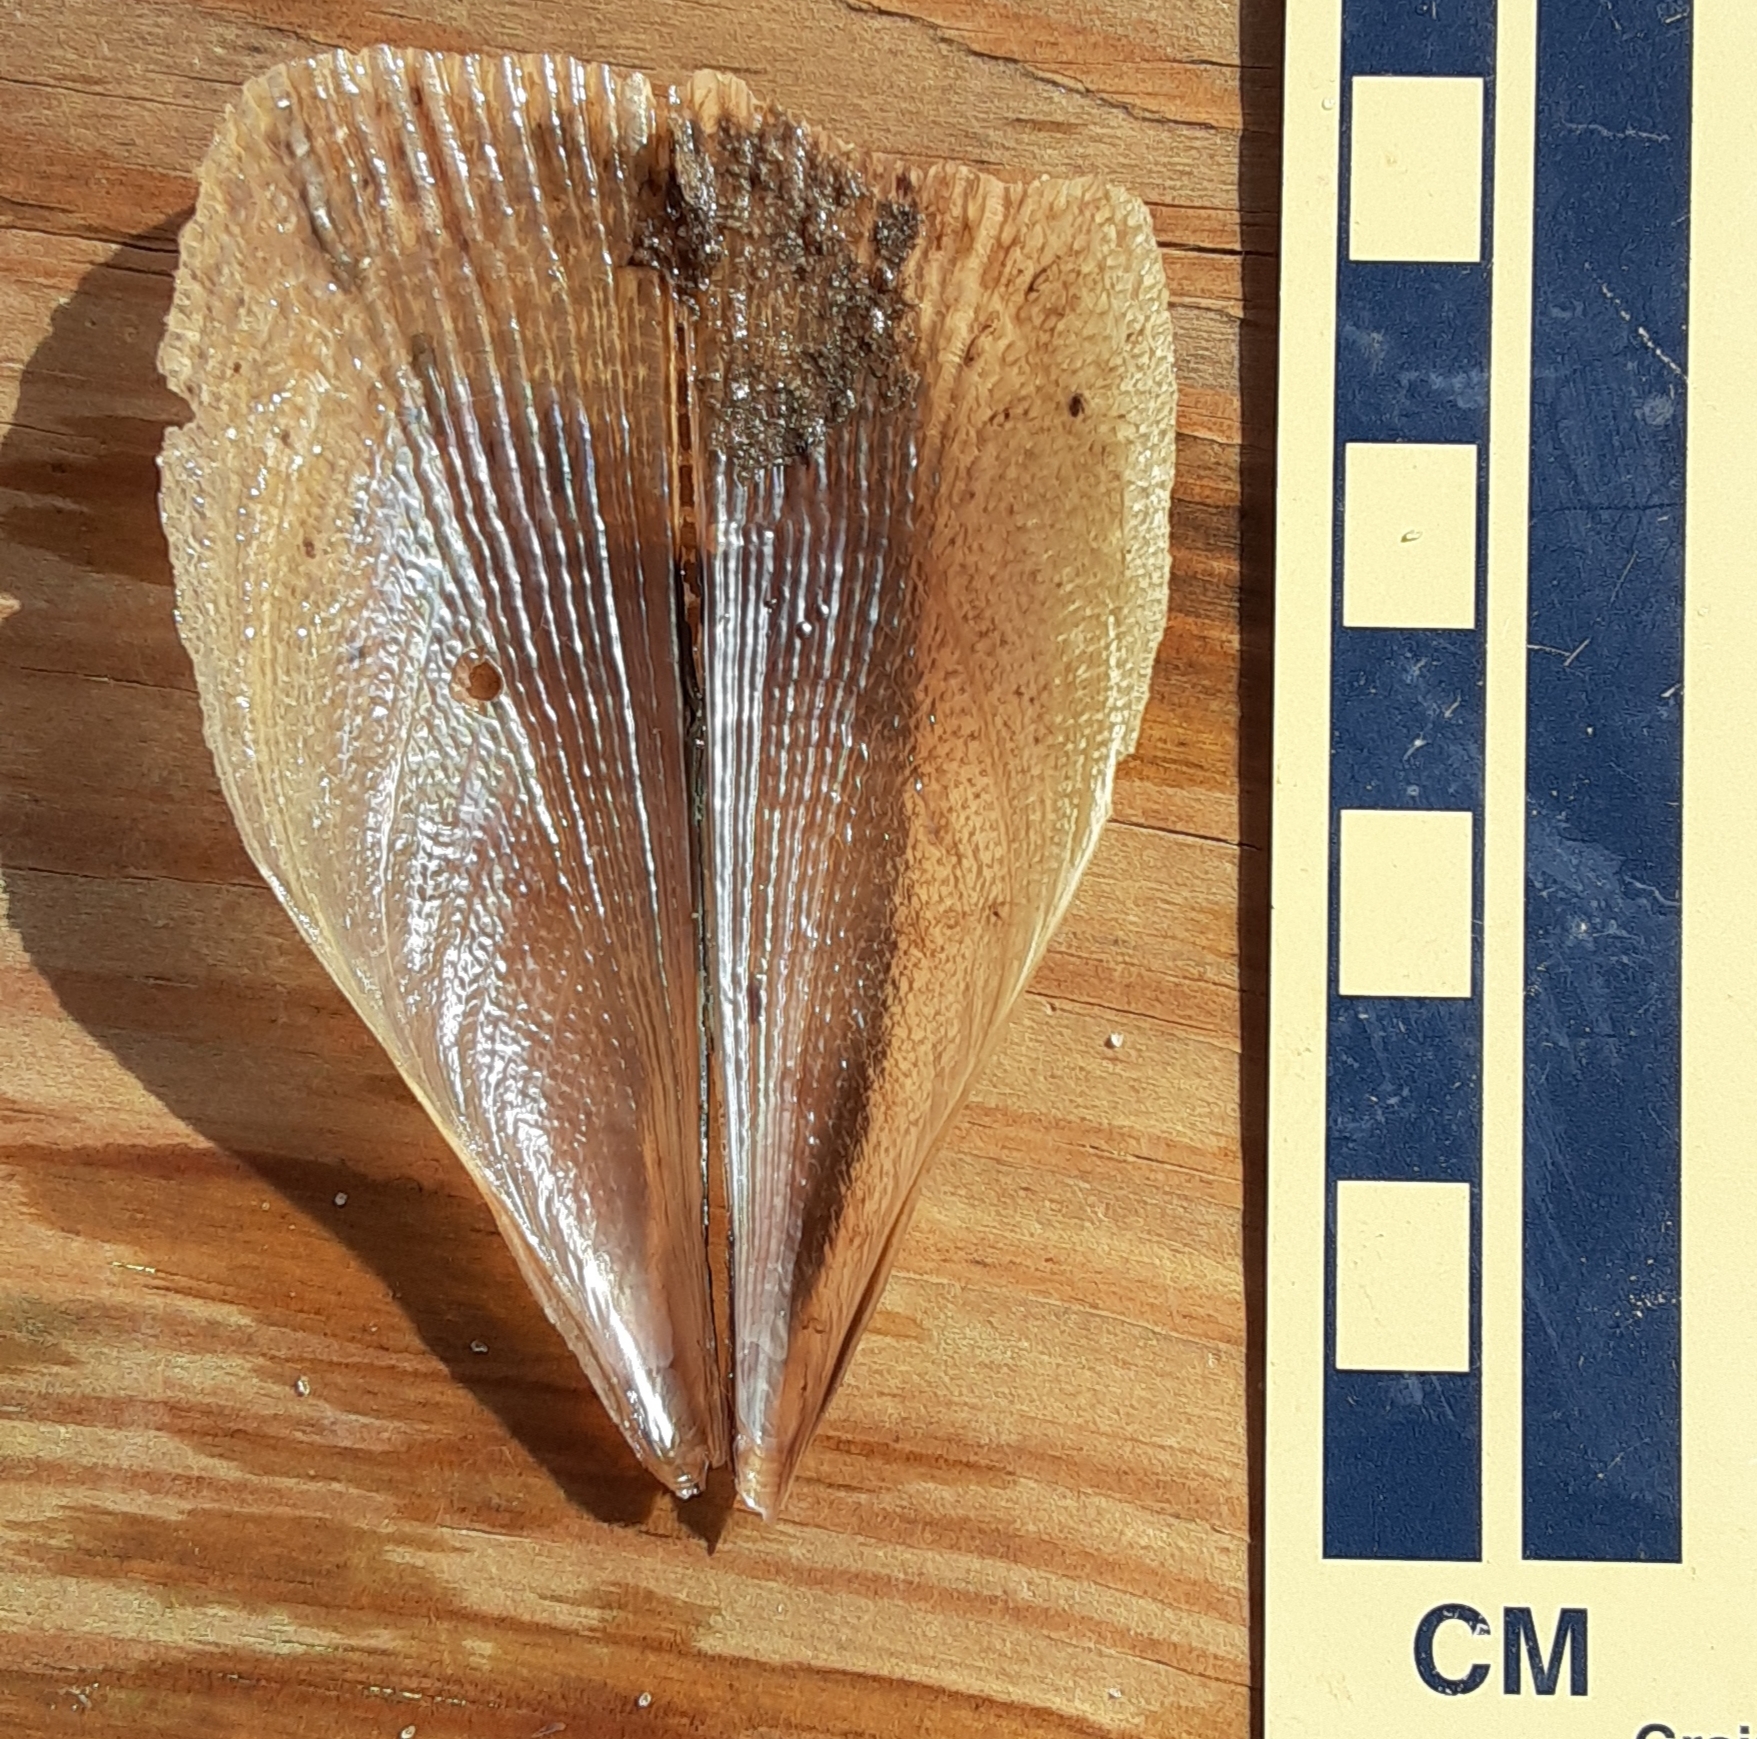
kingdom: Animalia
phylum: Mollusca
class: Bivalvia
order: Ostreida
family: Pinnidae
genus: Atrina
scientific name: Atrina serrata
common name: Saw-toothed penshell
